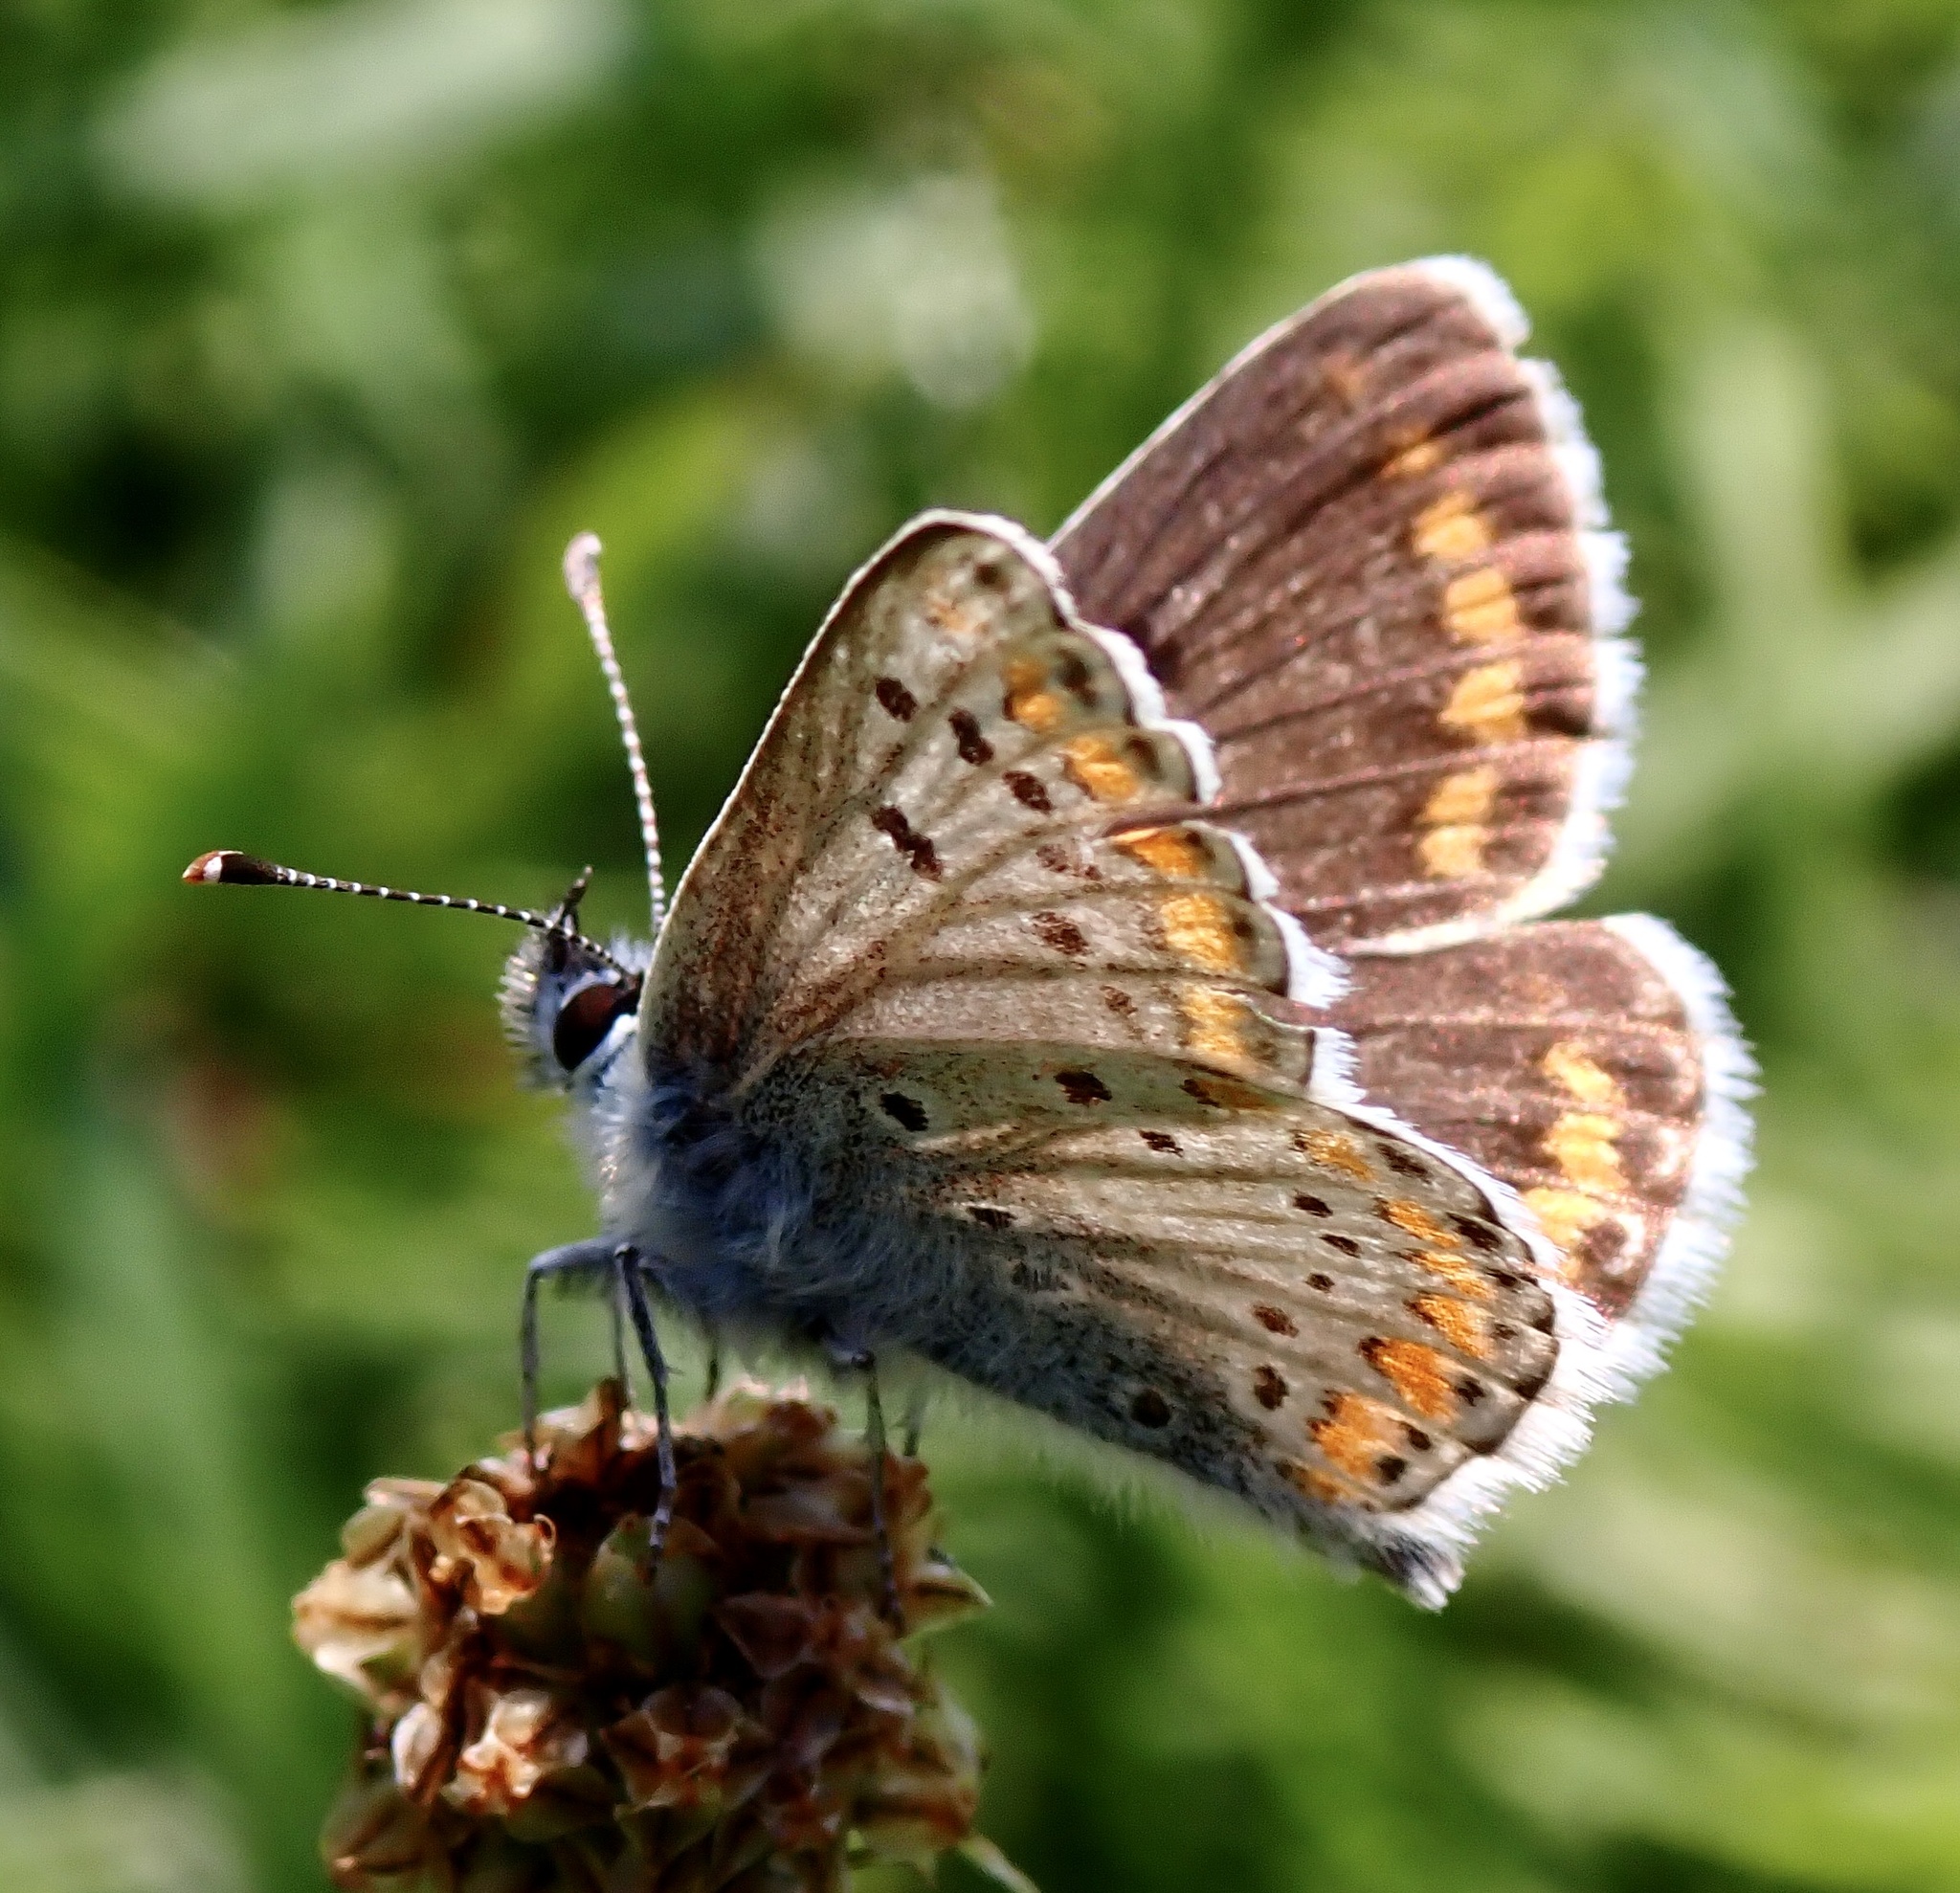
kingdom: Animalia
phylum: Arthropoda
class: Insecta
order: Lepidoptera
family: Lycaenidae
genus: Aricia
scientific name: Aricia agestis
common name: Brown argus
